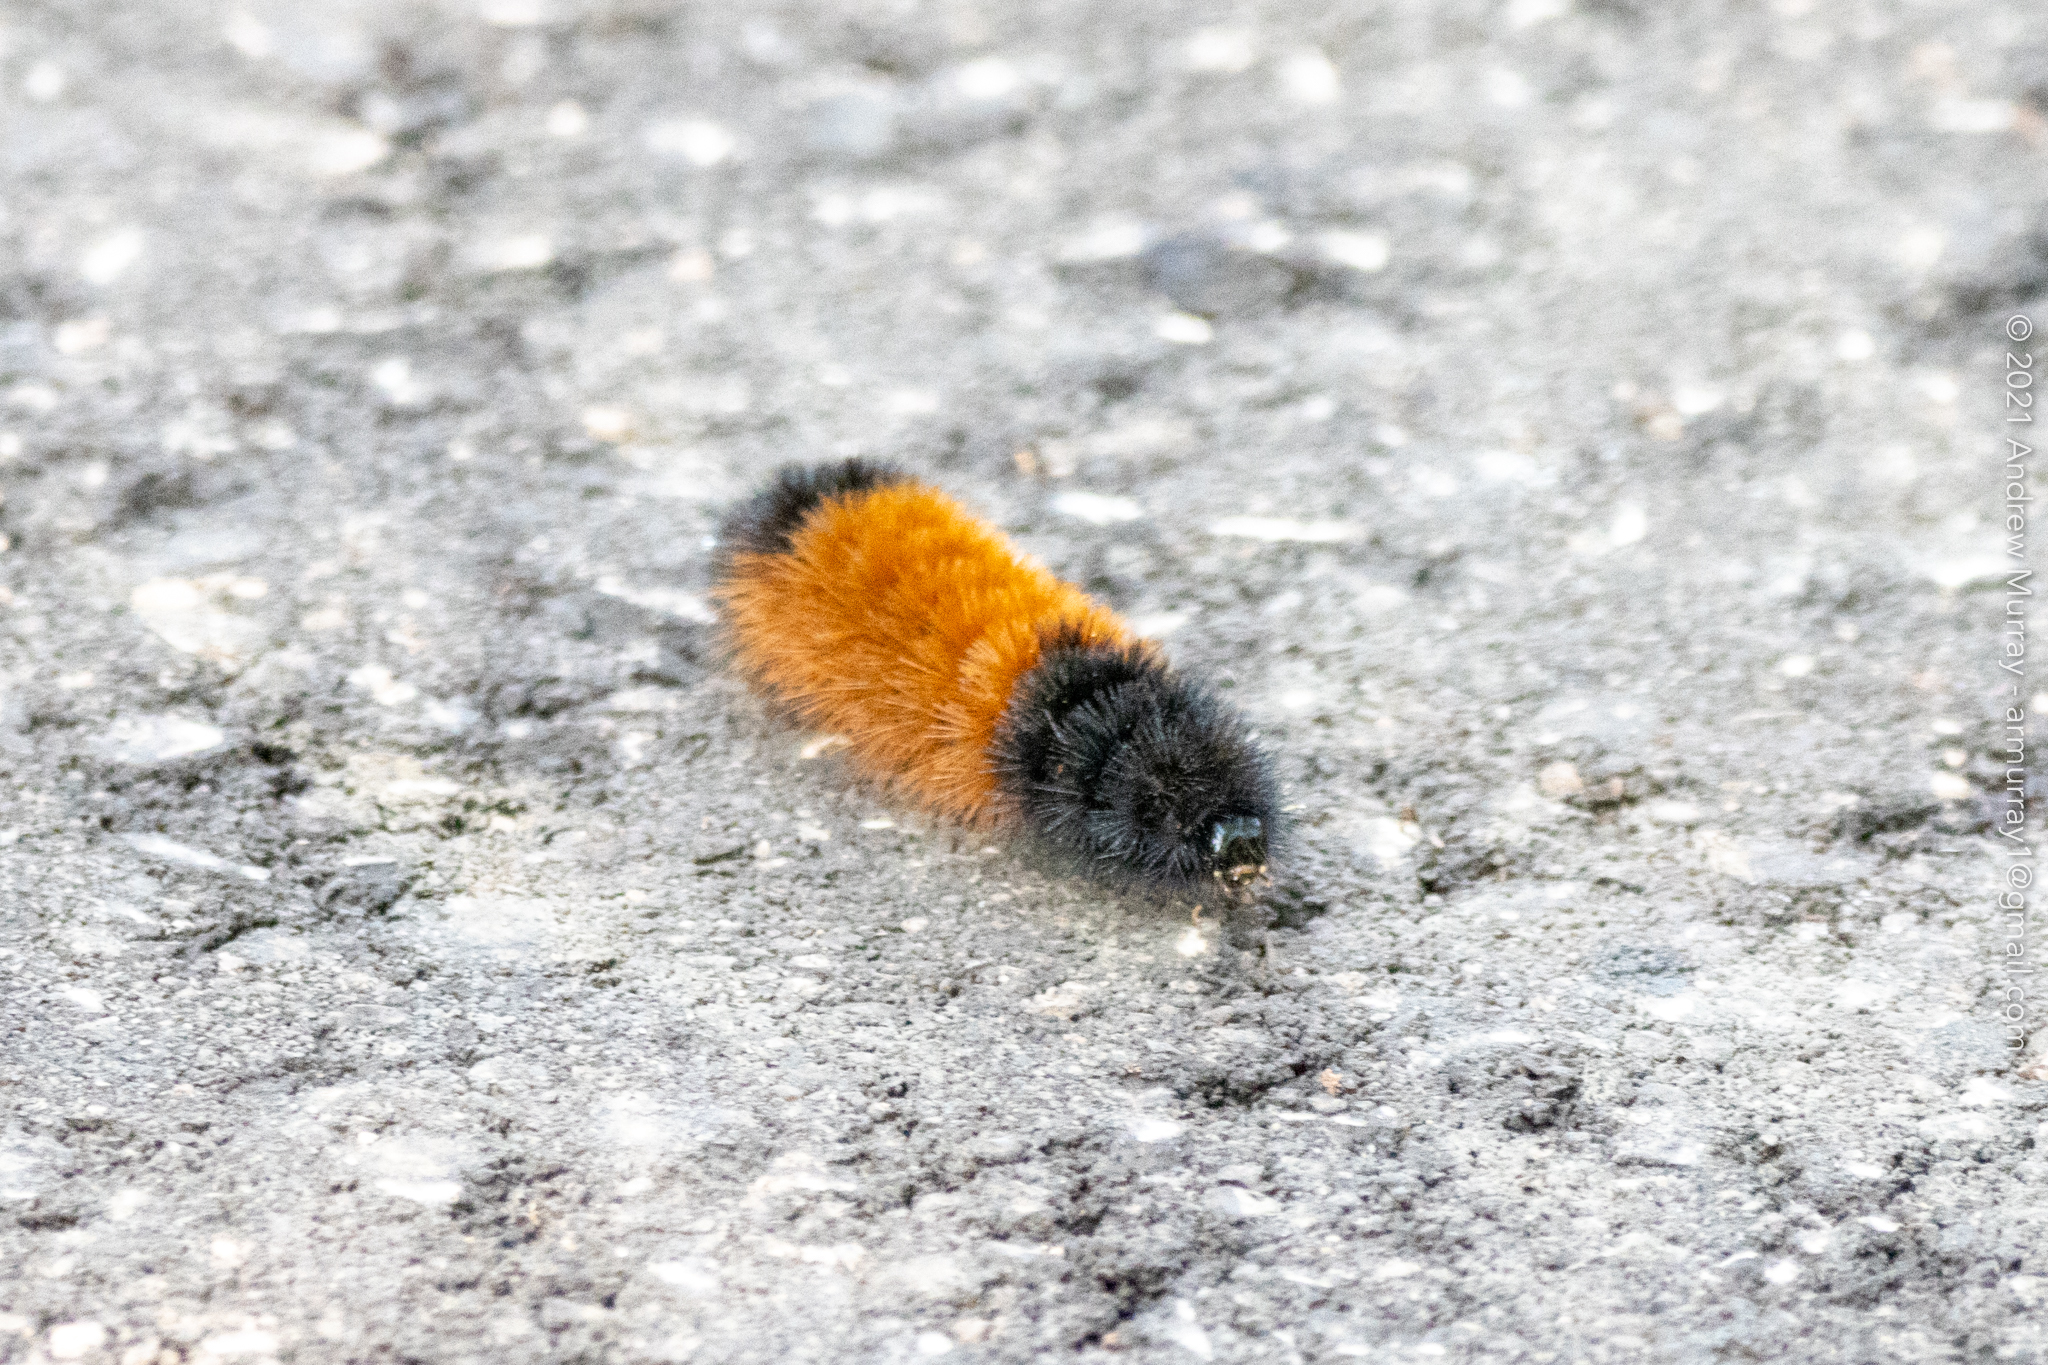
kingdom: Animalia
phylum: Arthropoda
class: Insecta
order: Lepidoptera
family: Erebidae
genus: Pyrrharctia
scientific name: Pyrrharctia isabella
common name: Isabella tiger moth
